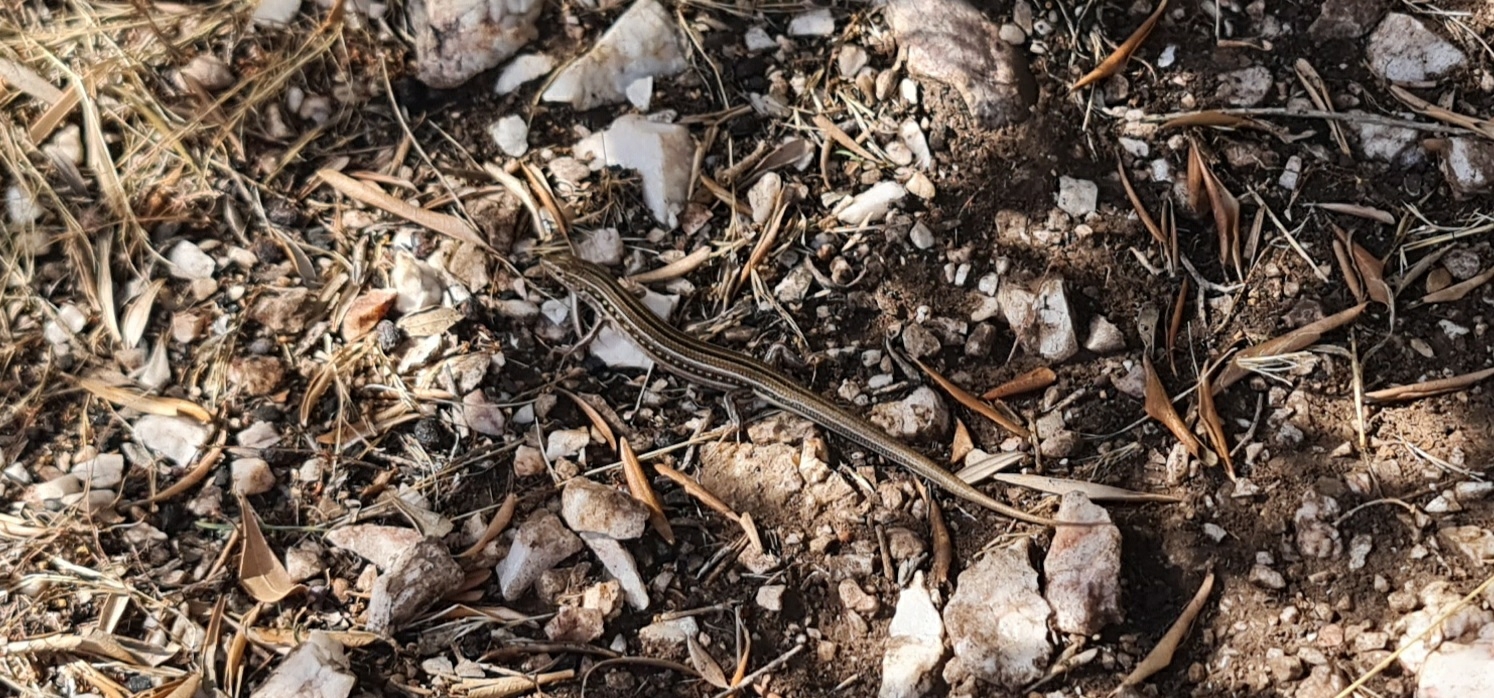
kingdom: Animalia
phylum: Chordata
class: Squamata
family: Scincidae
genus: Ctenotus
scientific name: Ctenotus robustus
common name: Robust ctenotus
